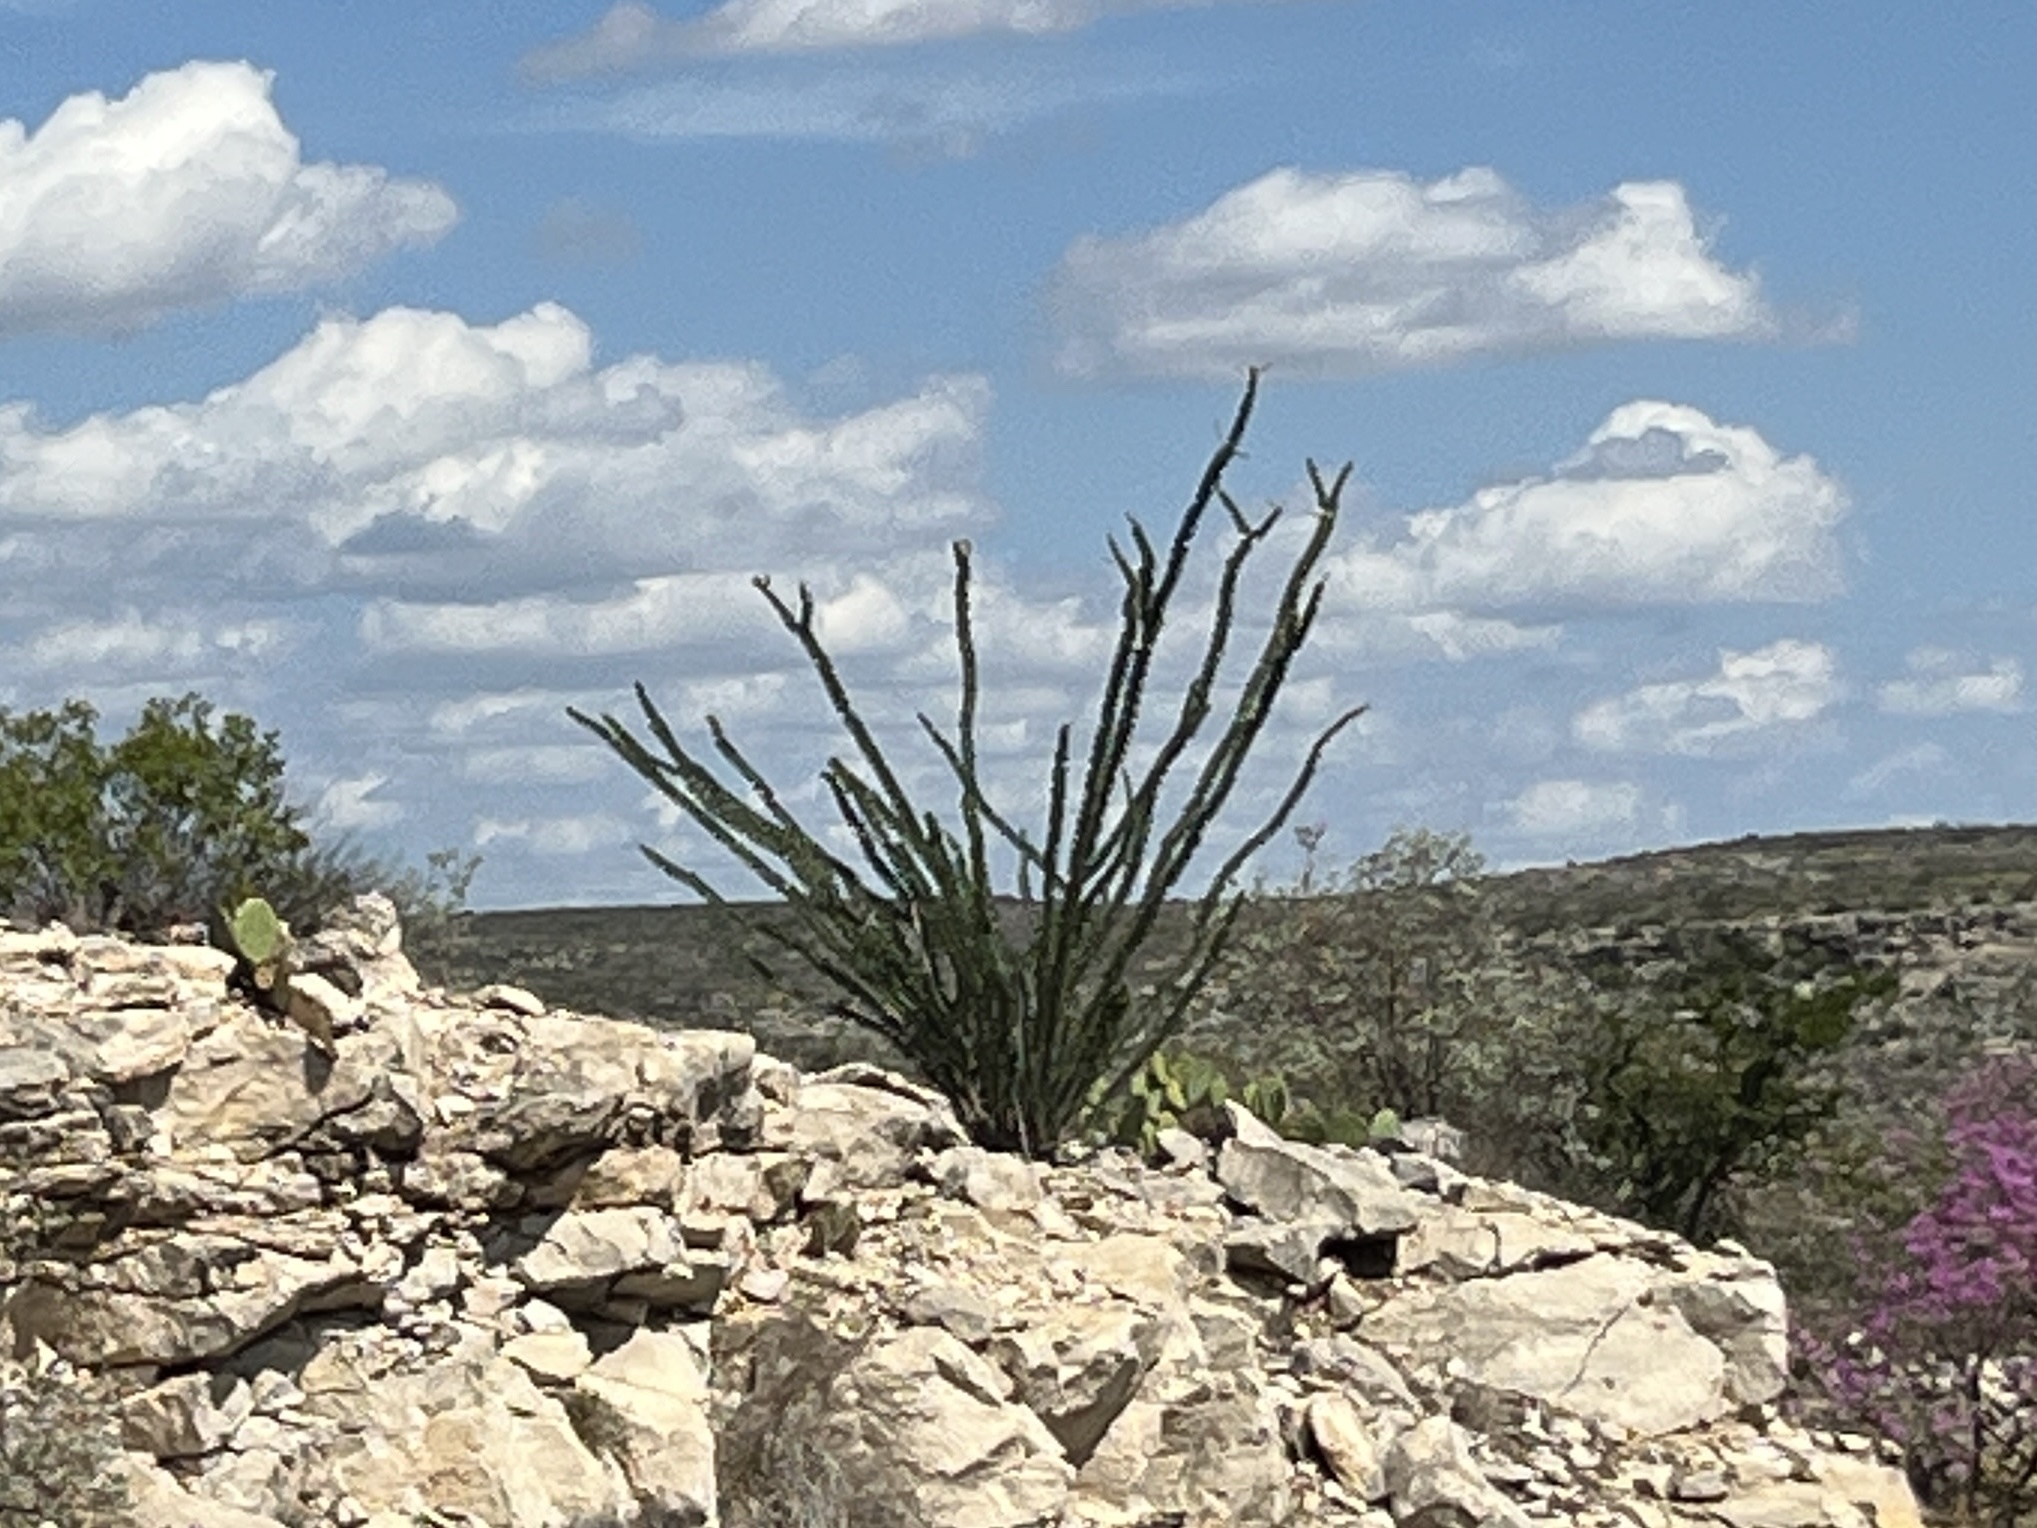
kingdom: Plantae
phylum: Tracheophyta
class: Magnoliopsida
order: Ericales
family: Fouquieriaceae
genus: Fouquieria
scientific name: Fouquieria splendens
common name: Vine-cactus
